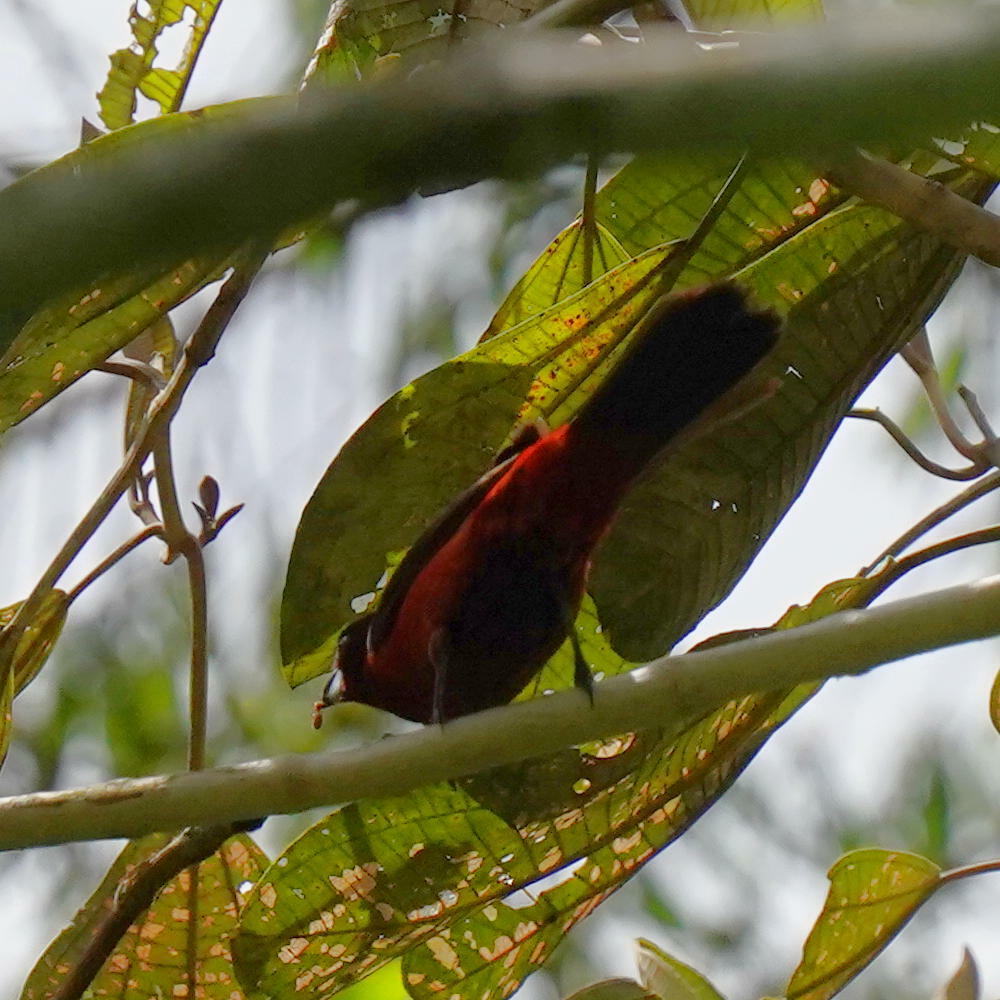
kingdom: Animalia
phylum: Chordata
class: Aves
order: Passeriformes
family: Thraupidae
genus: Ramphocelus
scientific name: Ramphocelus dimidiatus
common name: Crimson-backed tanager
